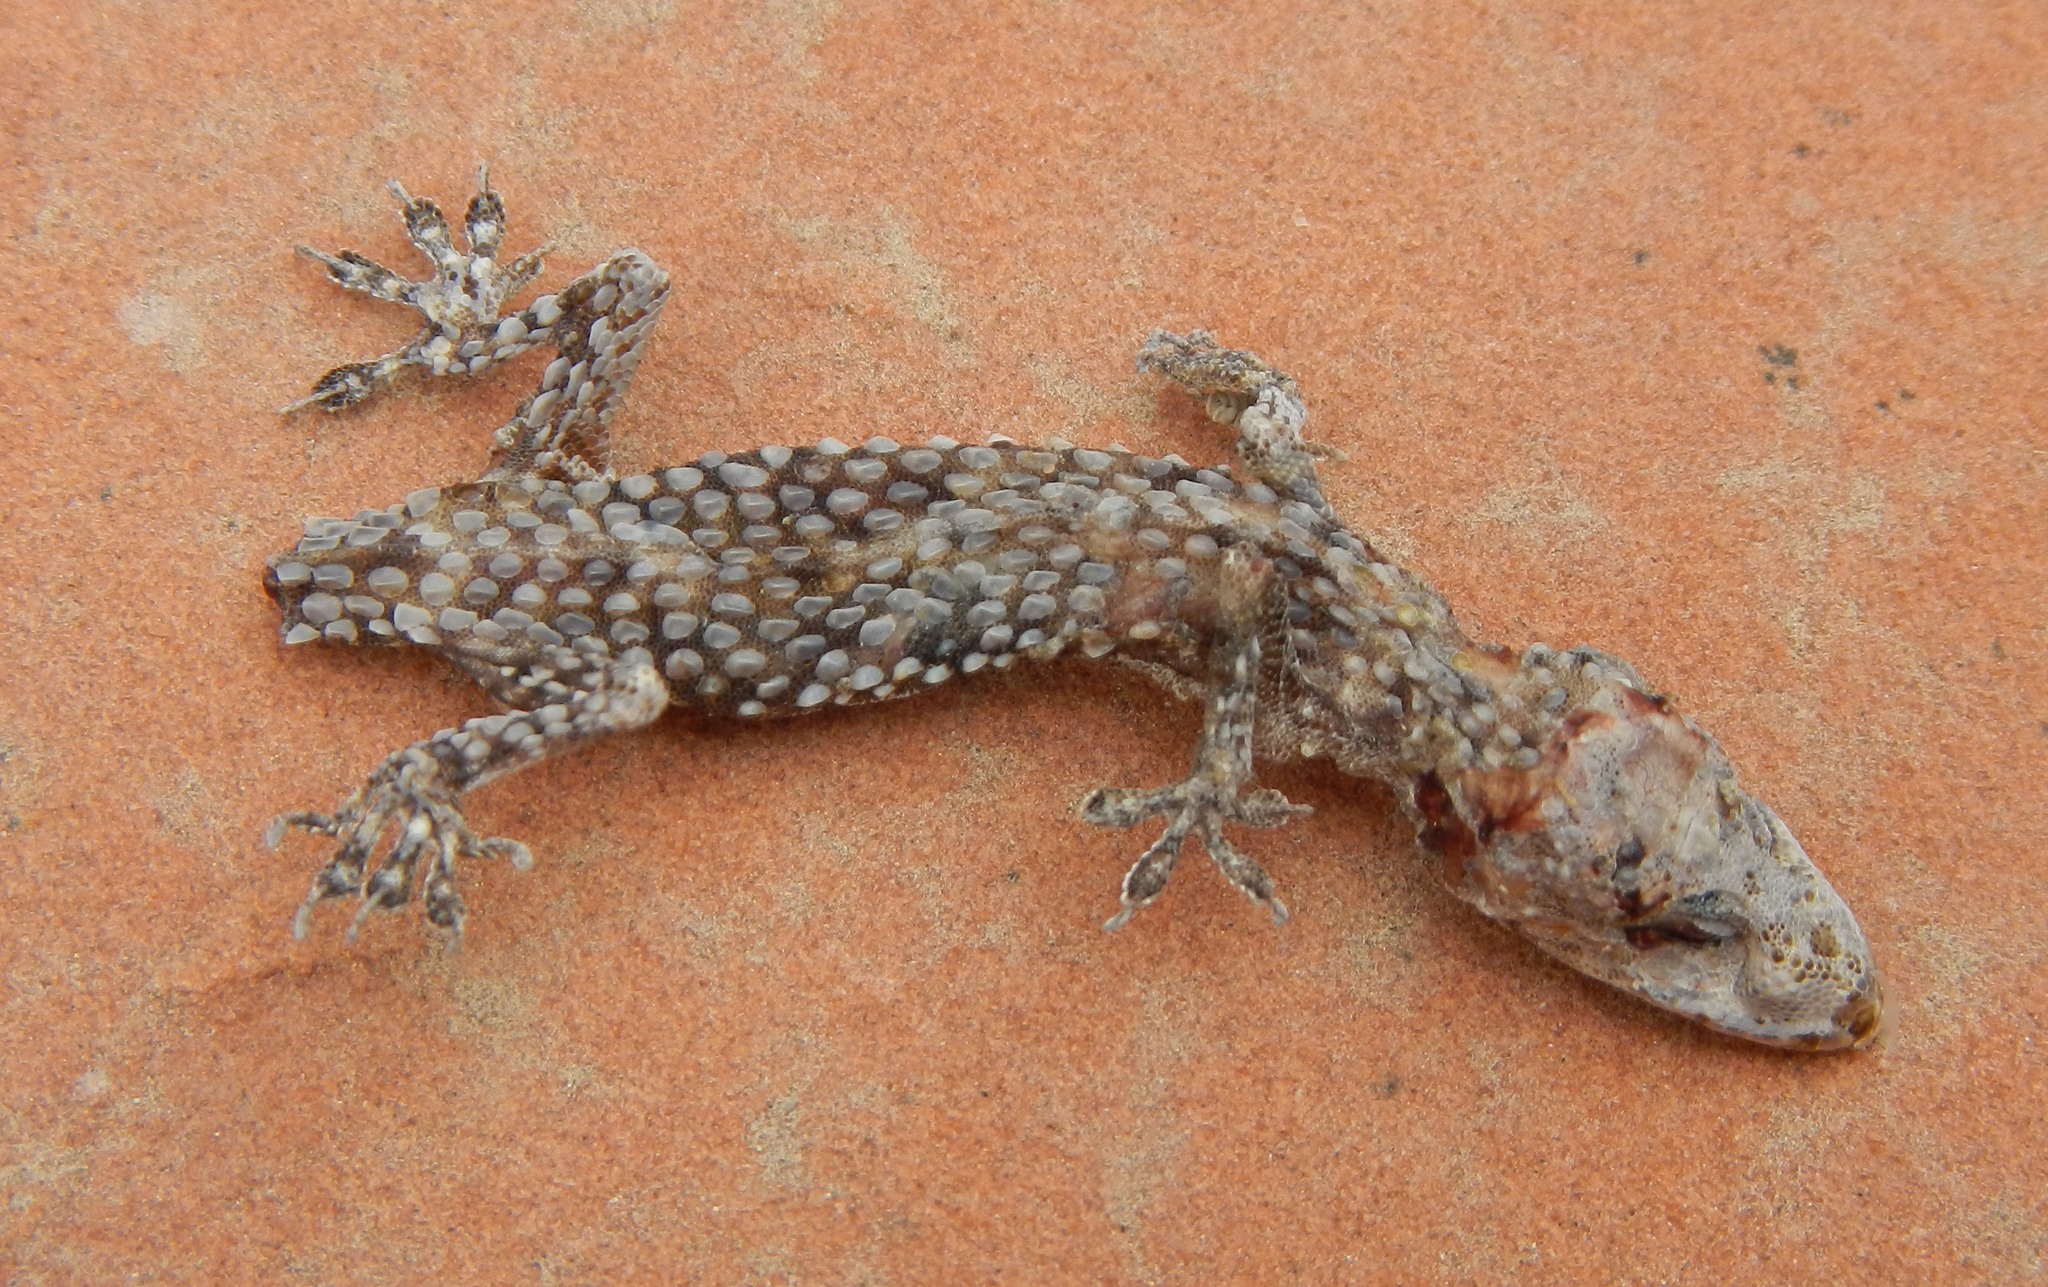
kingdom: Animalia
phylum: Chordata
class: Squamata
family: Gekkonidae
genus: Hemidactylus
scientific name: Hemidactylus turcicus
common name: Turkish gecko
